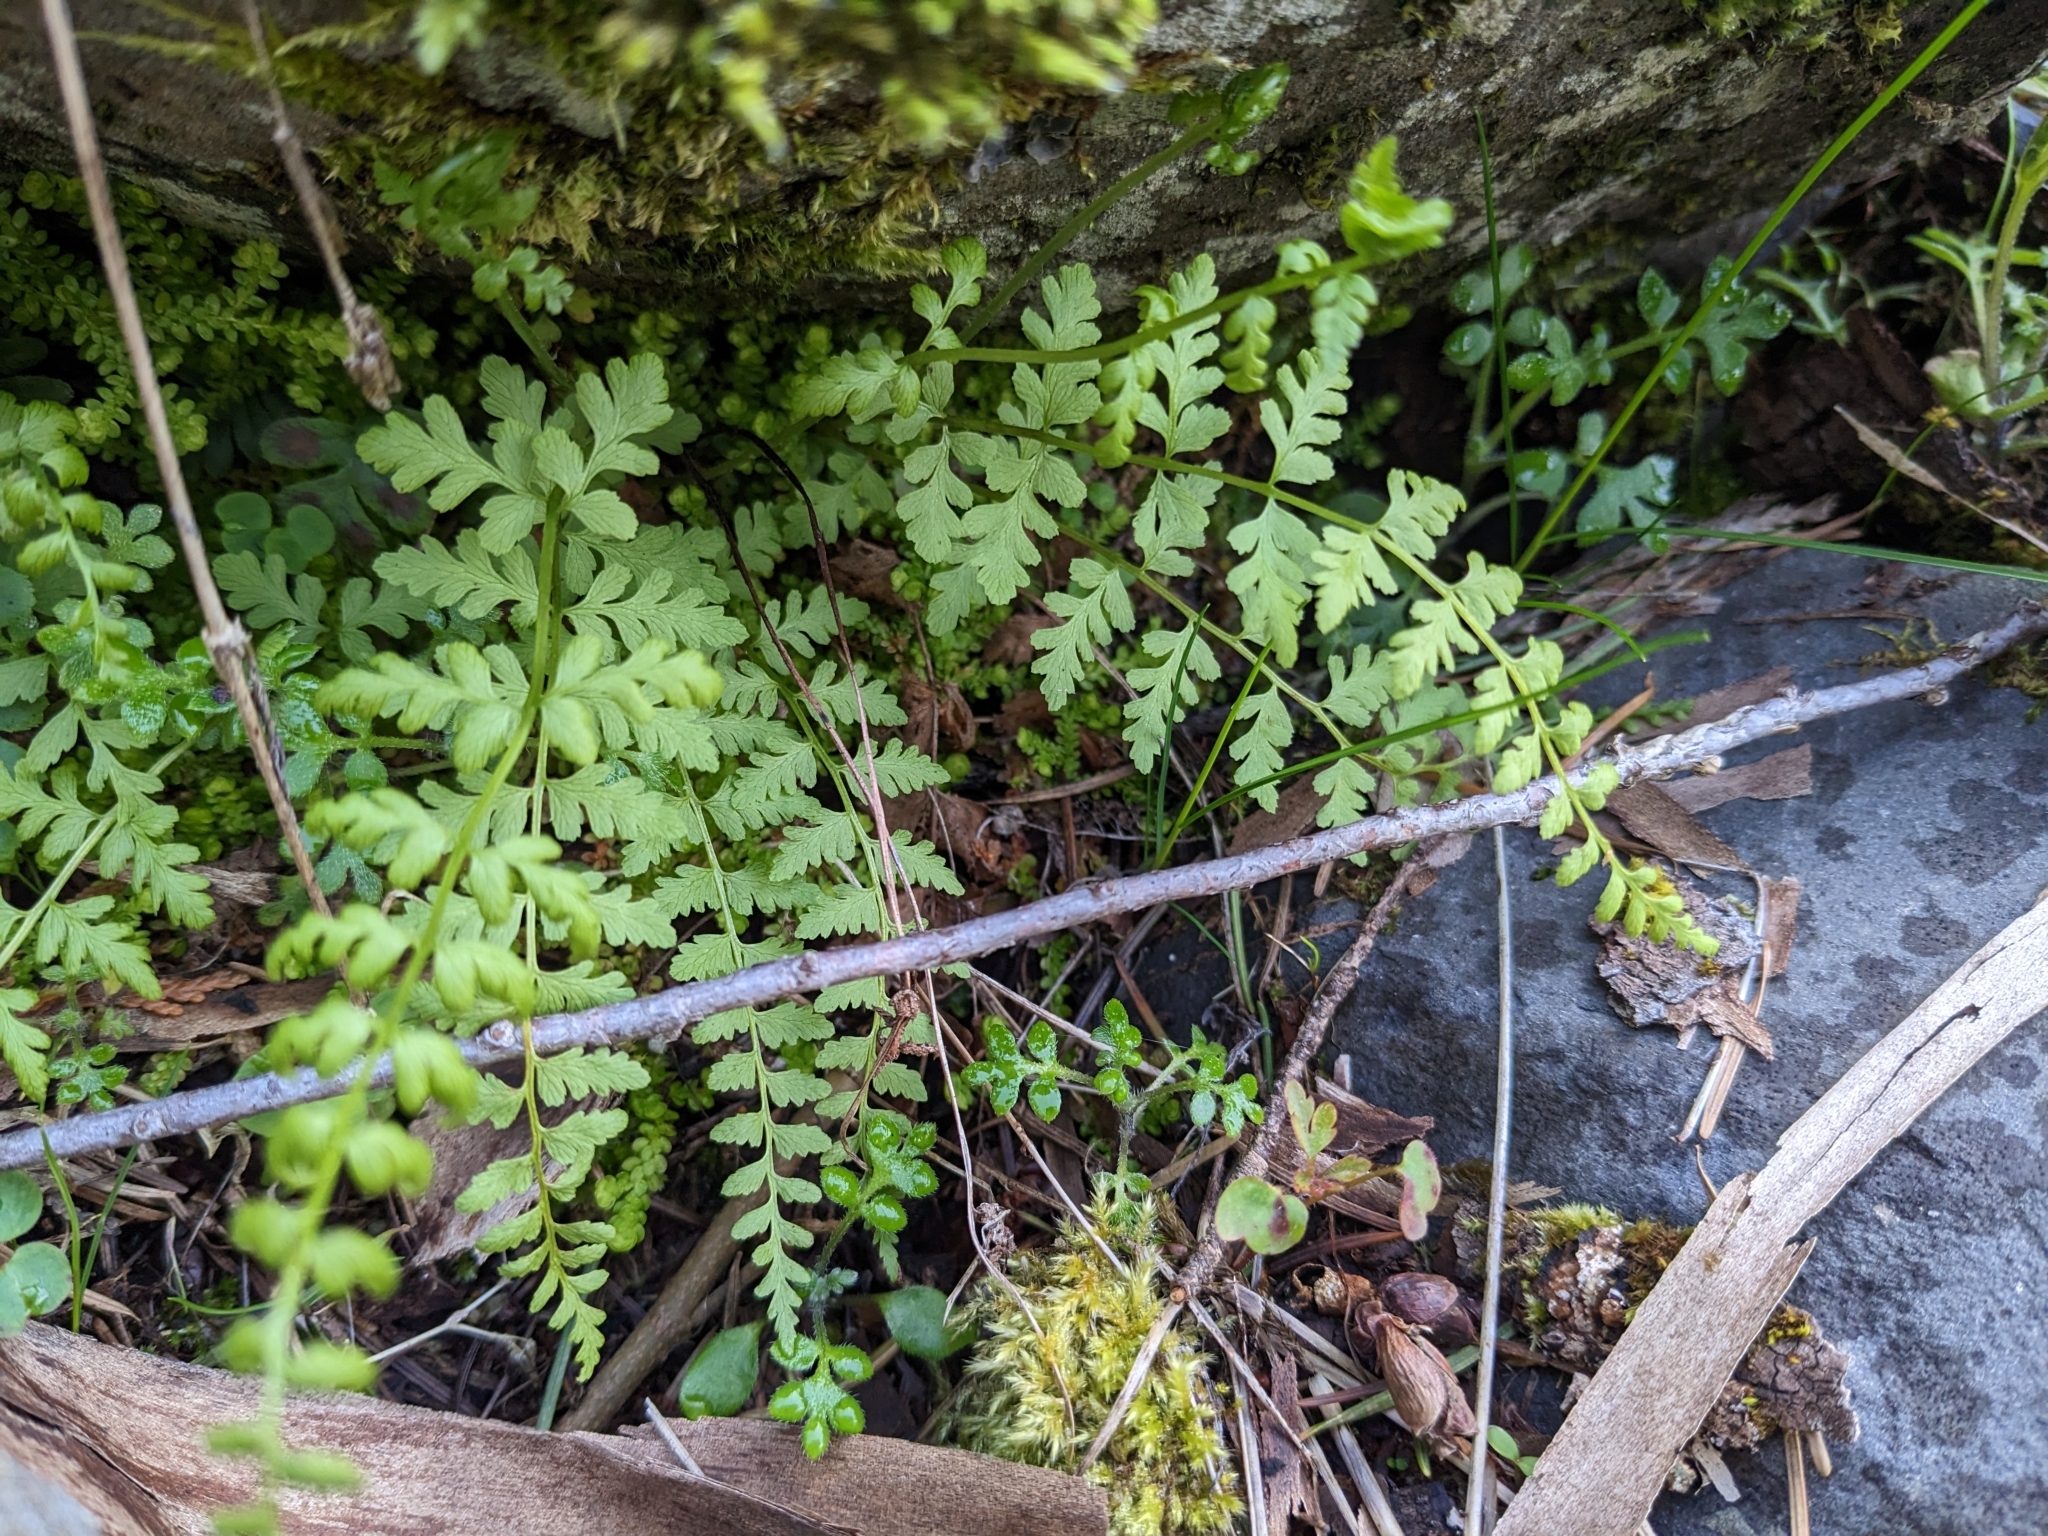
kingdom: Plantae
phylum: Tracheophyta
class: Polypodiopsida
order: Polypodiales
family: Cystopteridaceae
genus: Cystopteris
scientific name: Cystopteris fragilis
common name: Brittle bladder fern
